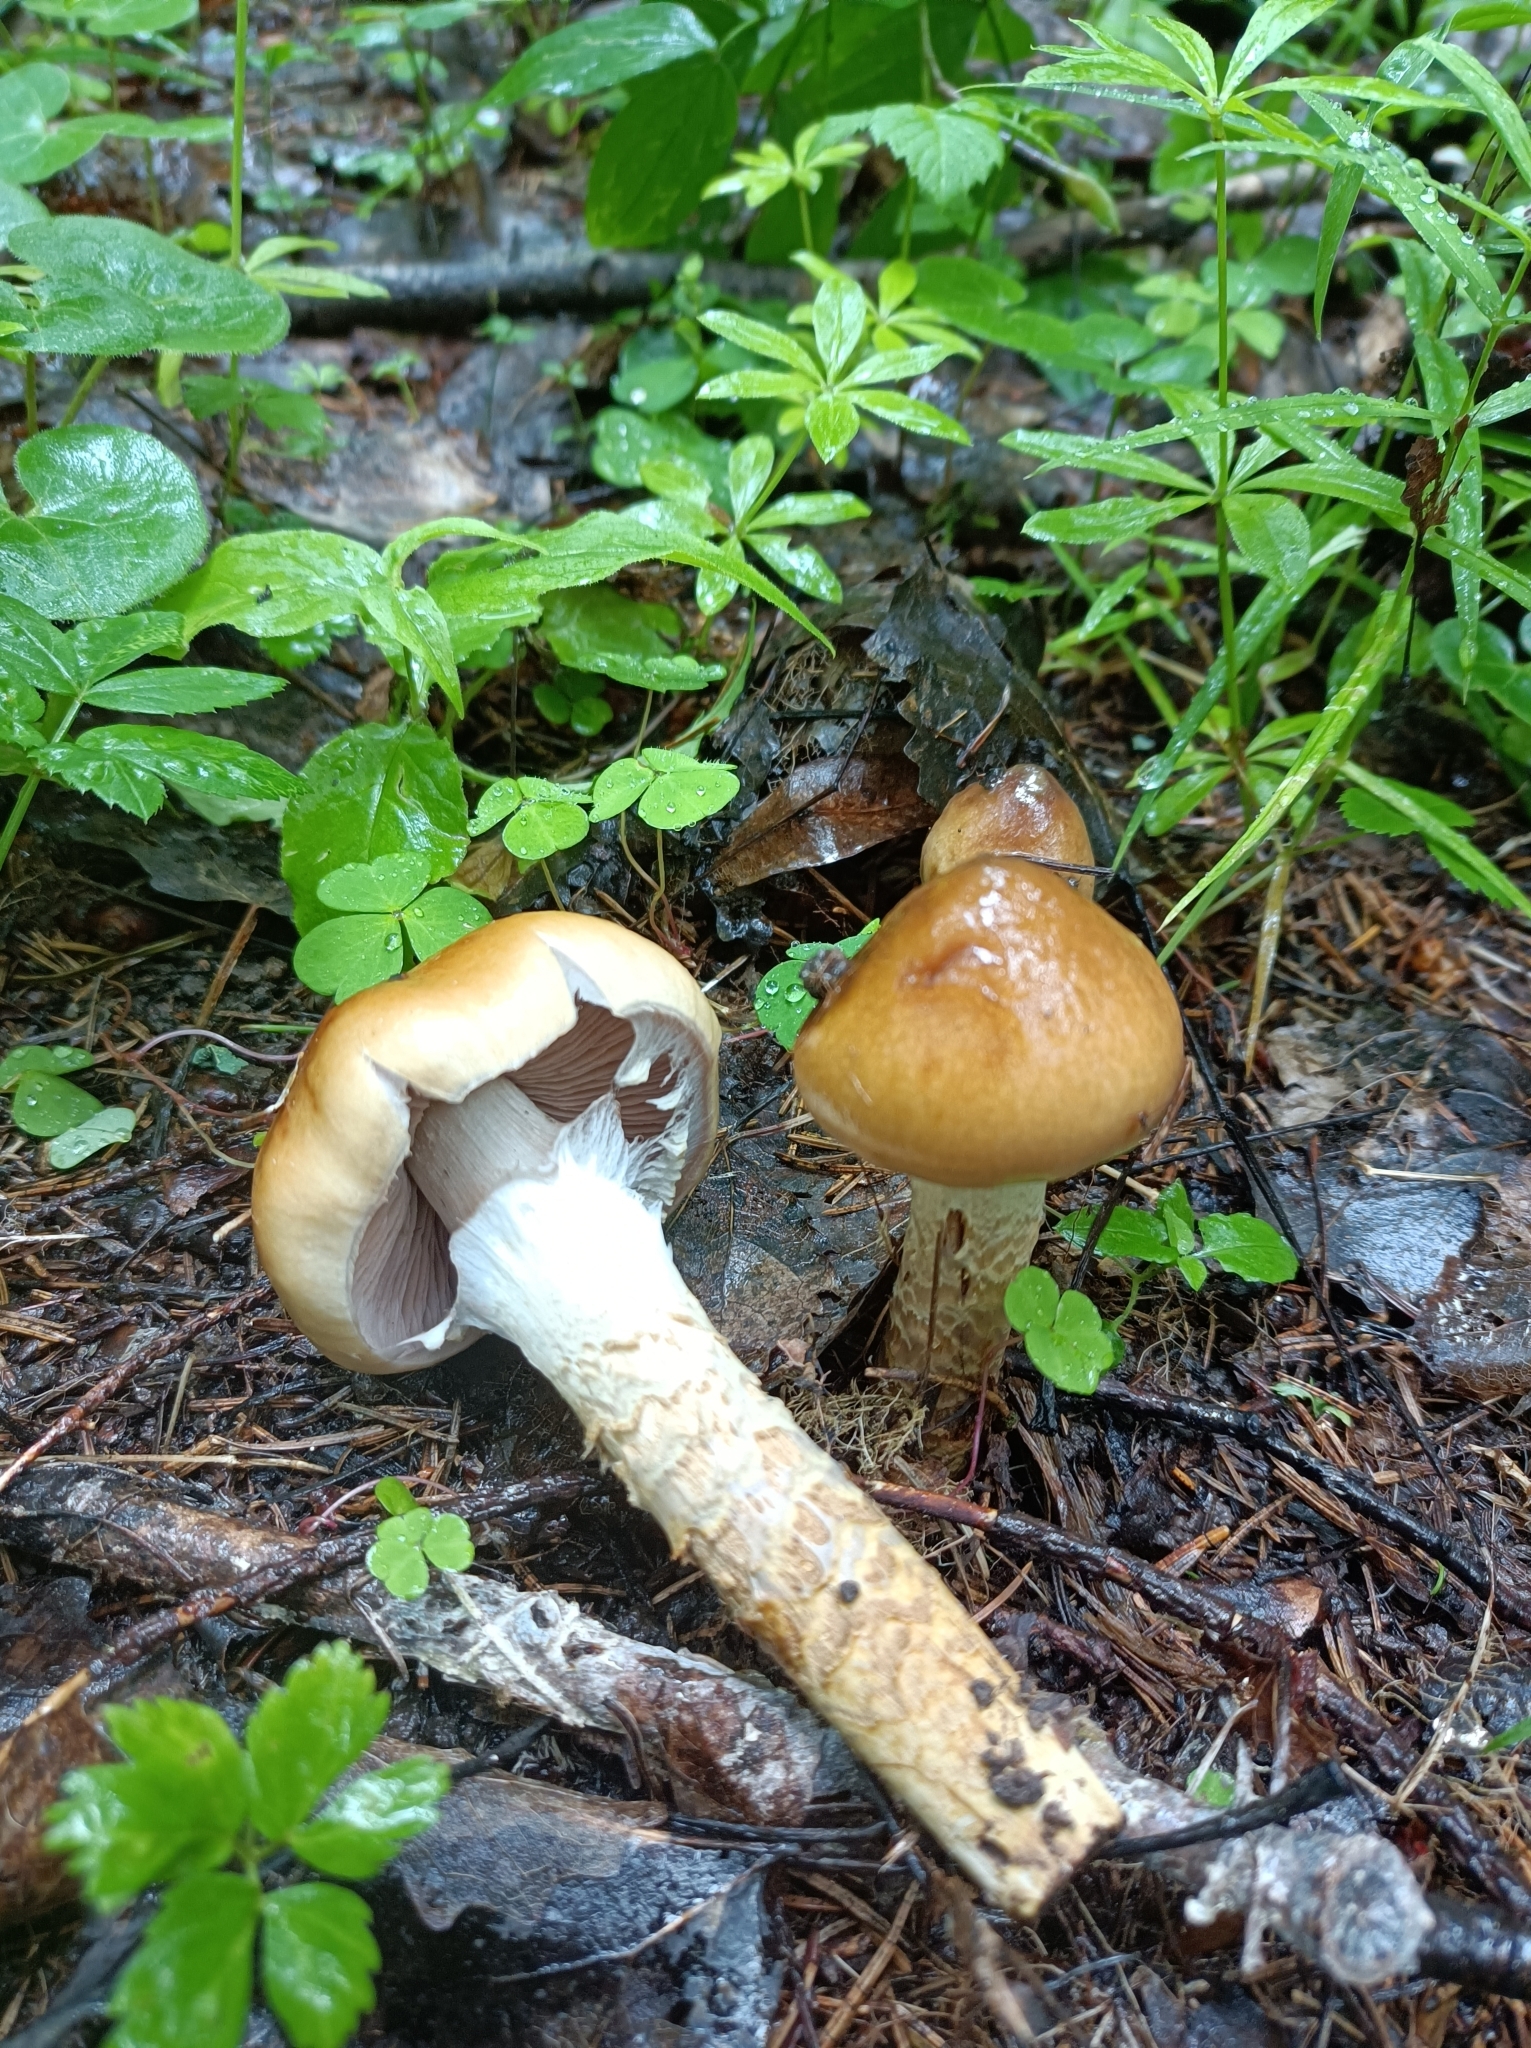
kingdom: Fungi
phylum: Basidiomycota
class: Agaricomycetes
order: Agaricales
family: Cortinariaceae
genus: Cortinarius
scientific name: Cortinarius trivialis
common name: Girdled webcap
